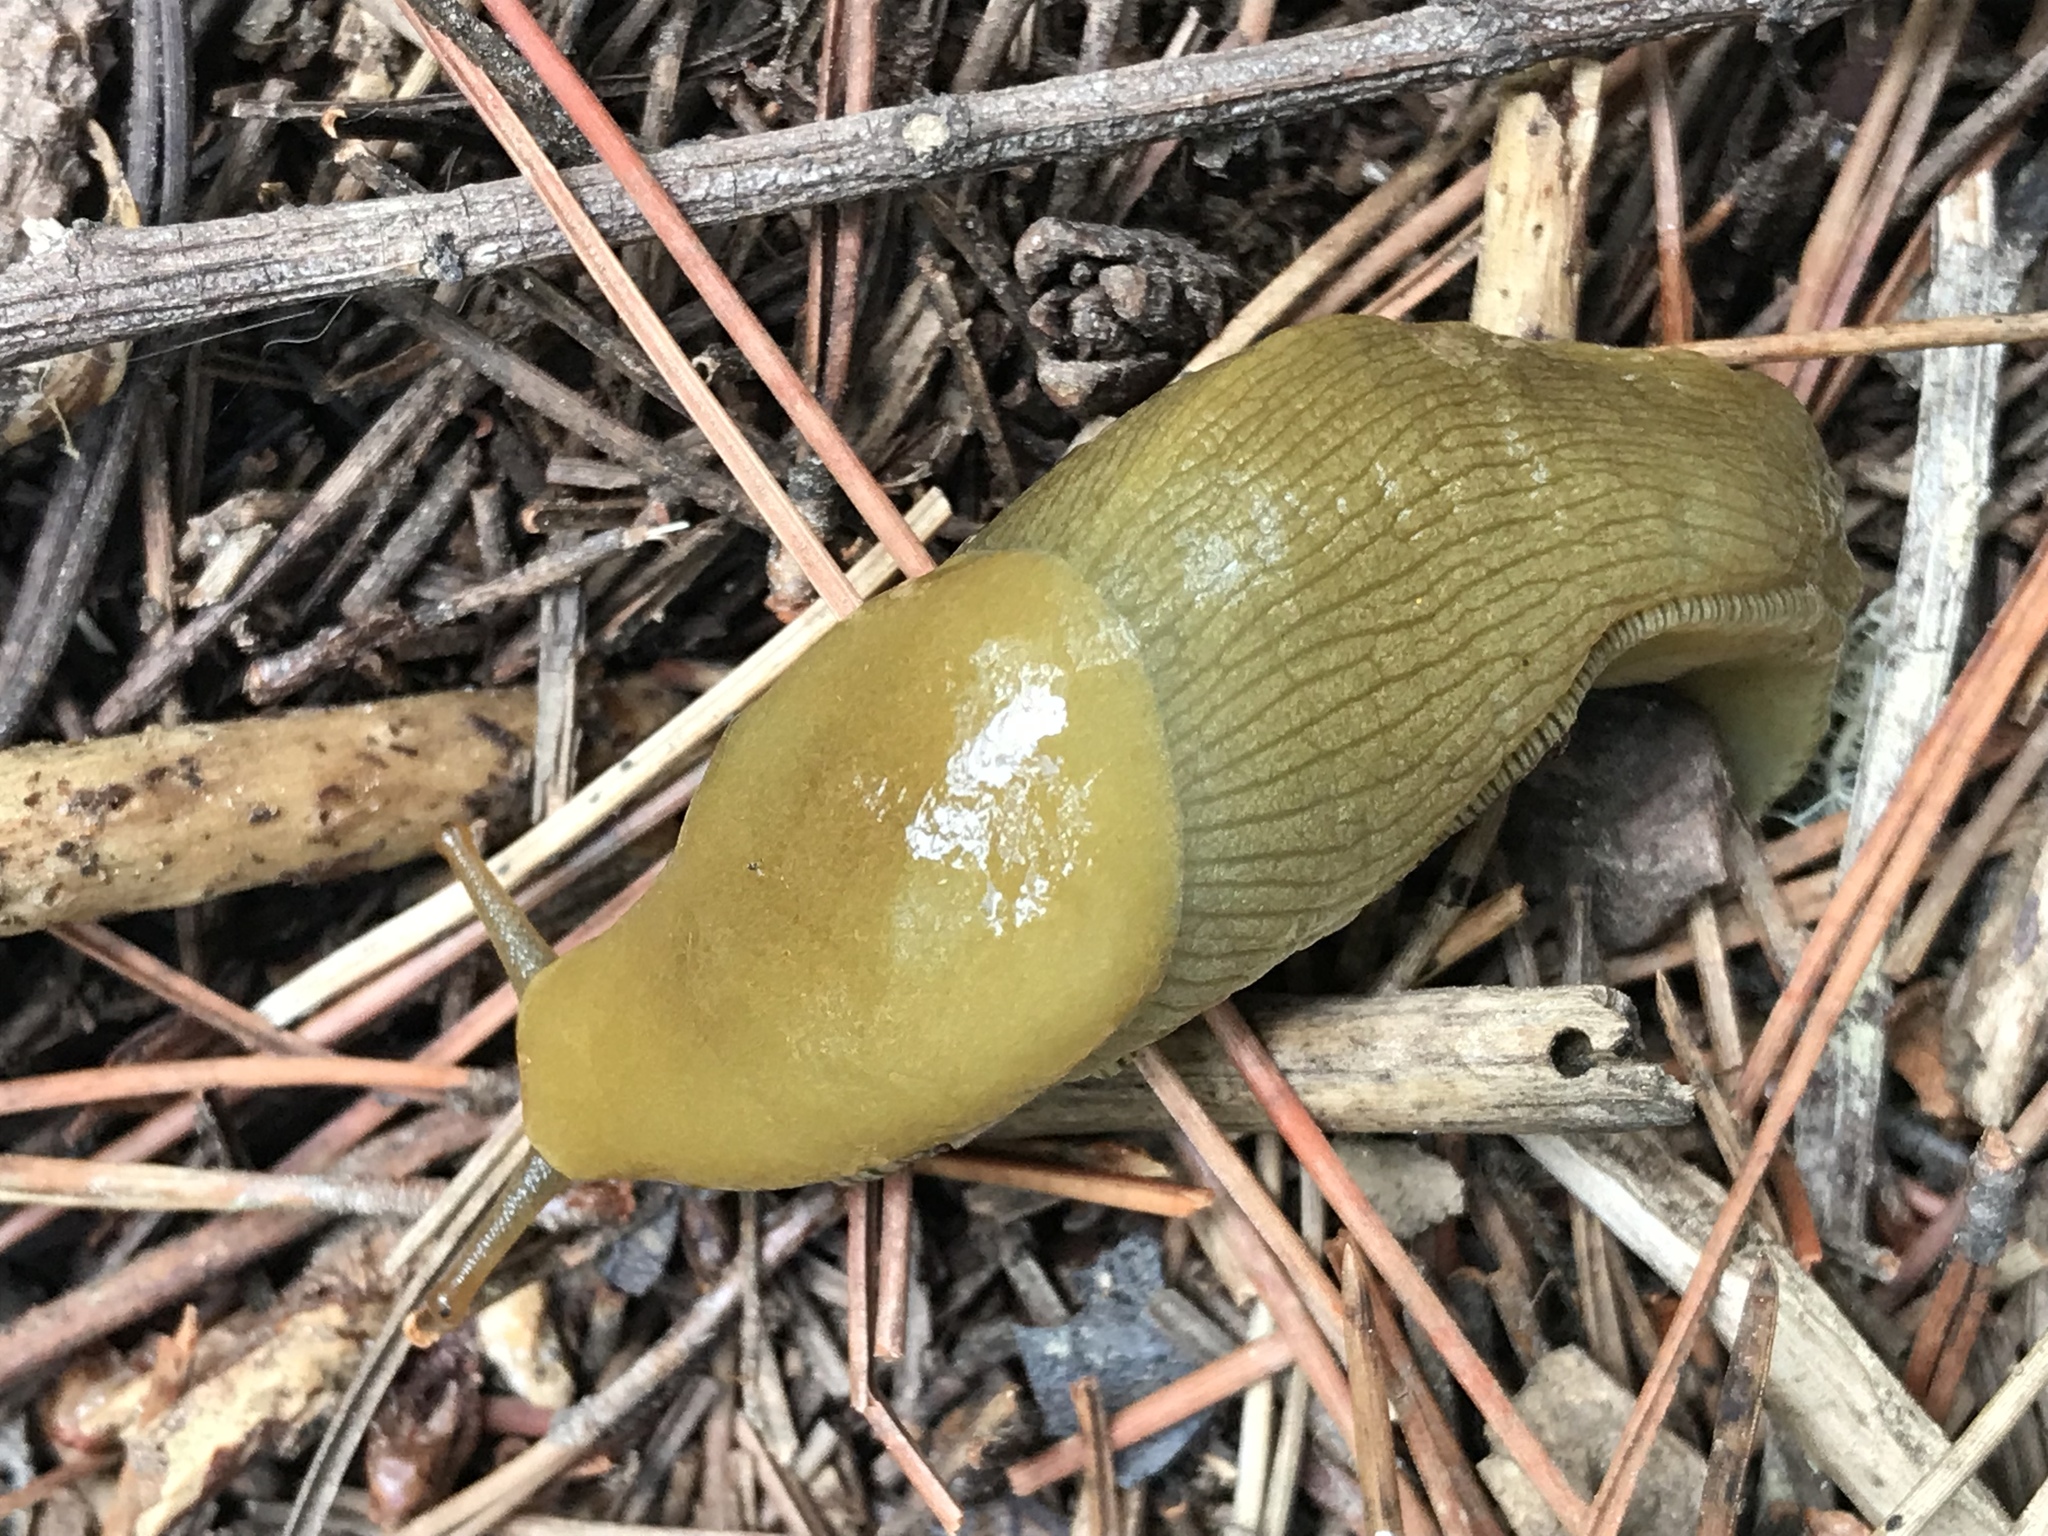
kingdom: Animalia
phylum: Mollusca
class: Gastropoda
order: Stylommatophora
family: Ariolimacidae
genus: Ariolimax
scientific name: Ariolimax buttoni
